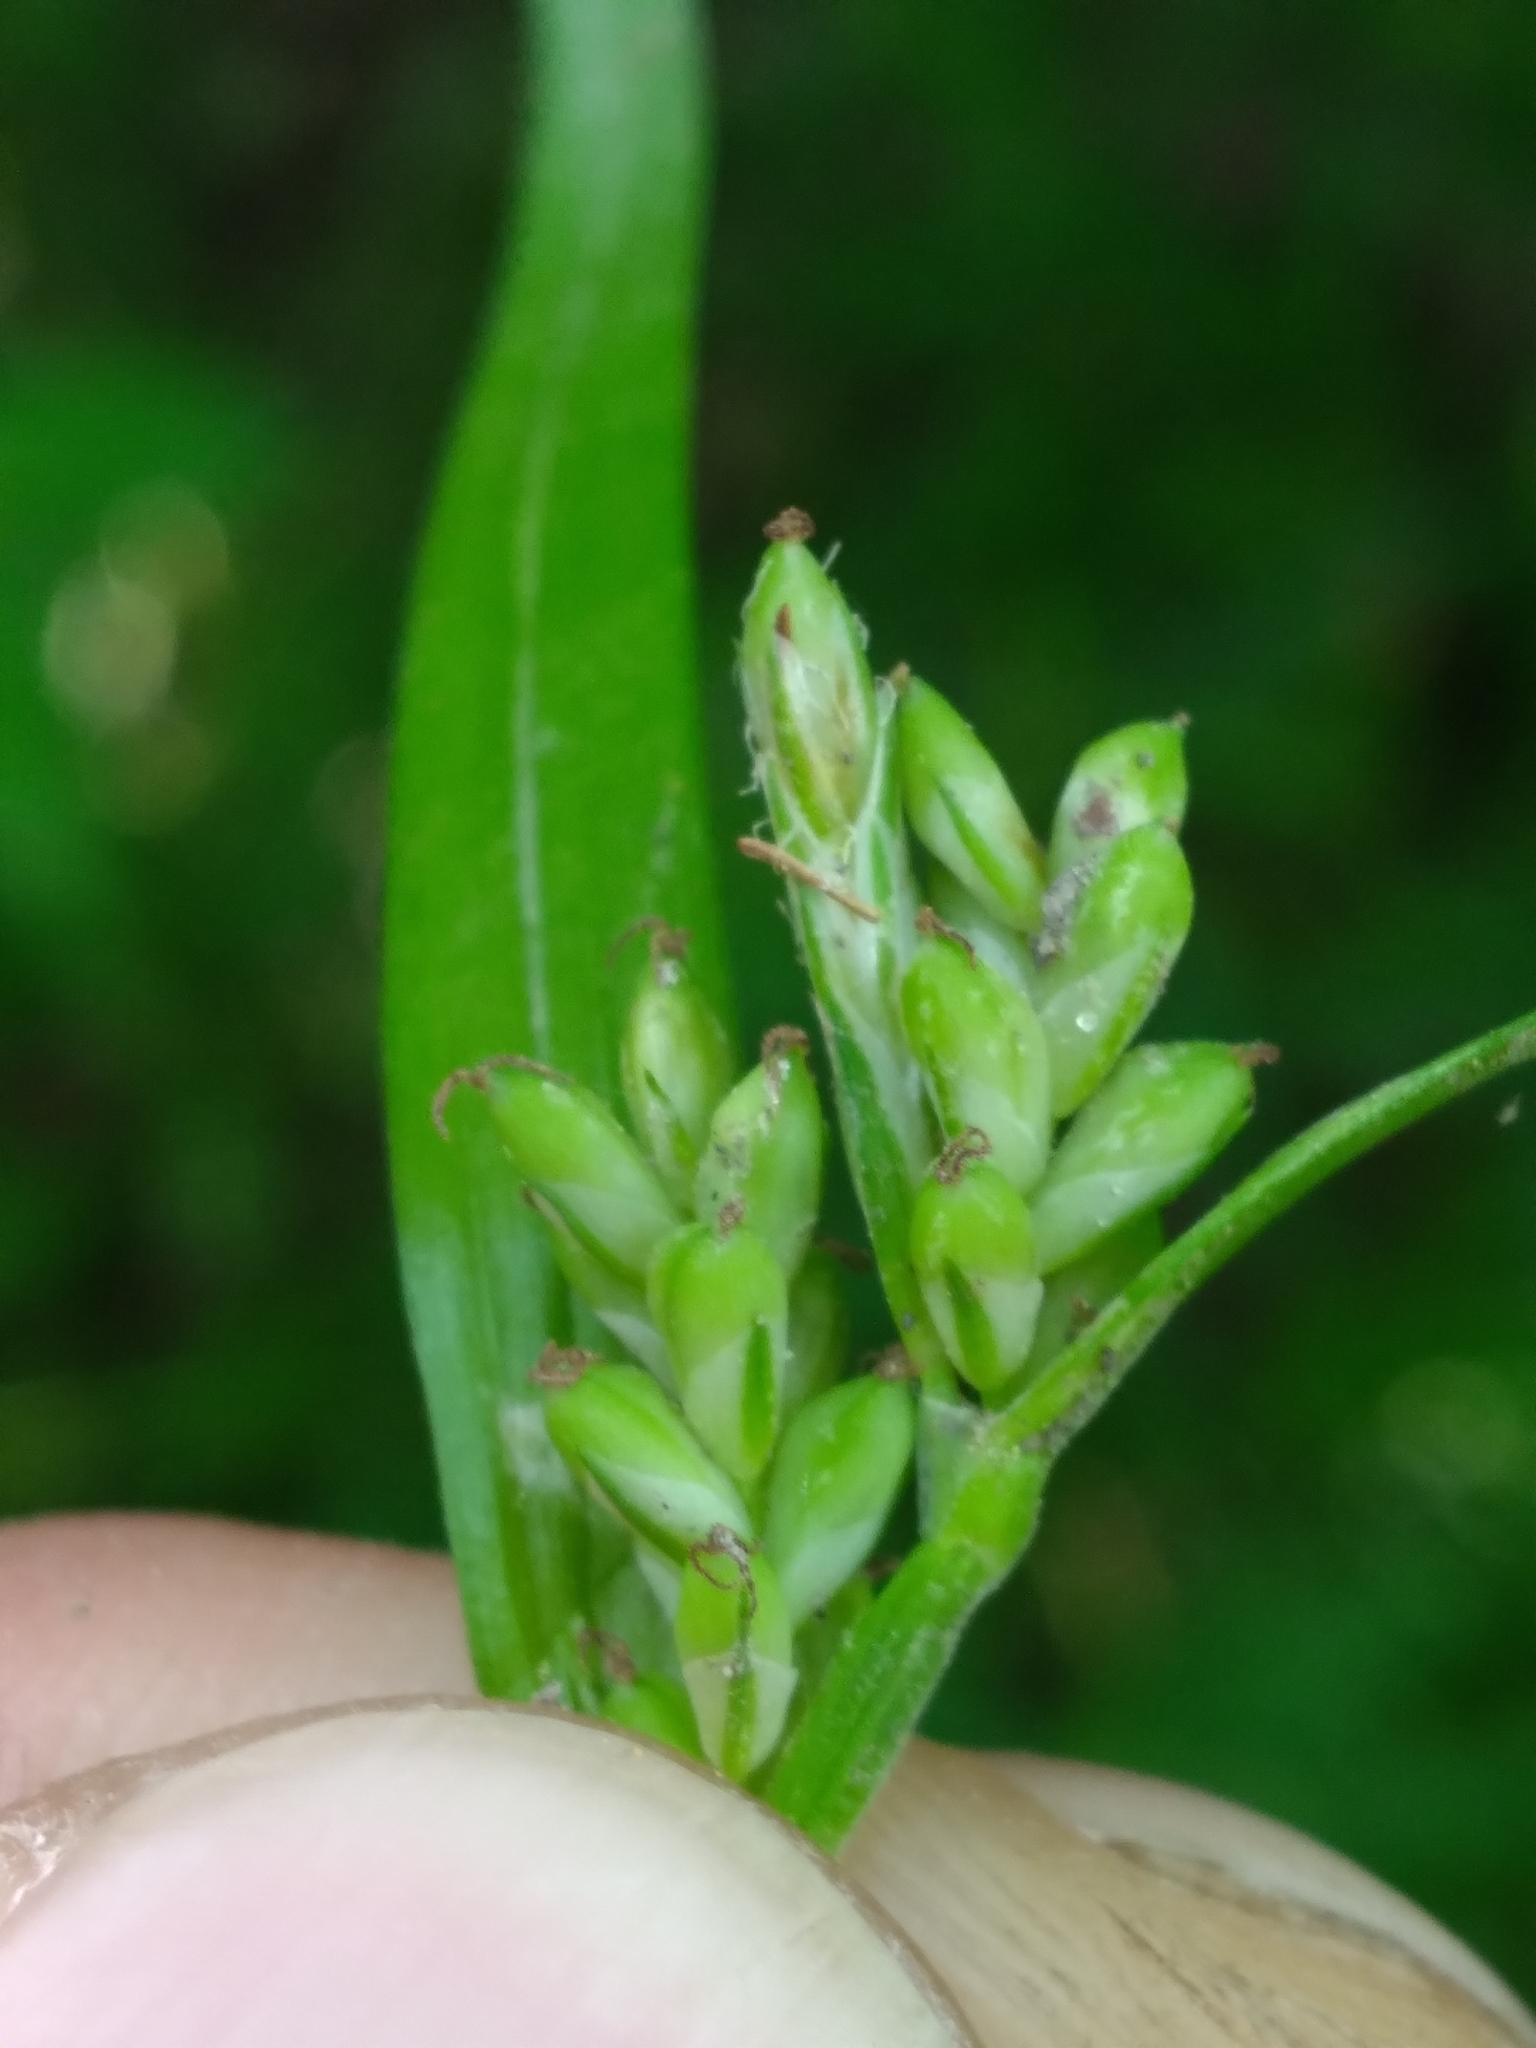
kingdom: Plantae
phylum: Tracheophyta
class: Liliopsida
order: Poales
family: Cyperaceae
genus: Carex
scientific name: Carex blanda
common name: Bland sedge
